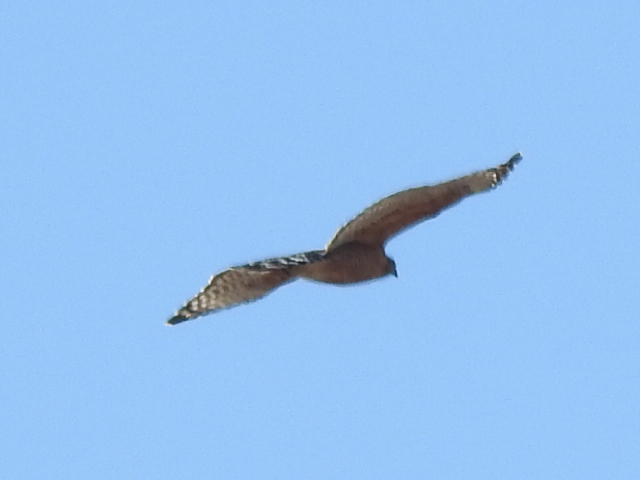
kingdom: Animalia
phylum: Chordata
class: Aves
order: Accipitriformes
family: Accipitridae
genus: Buteo
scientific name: Buteo lineatus
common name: Red-shouldered hawk
